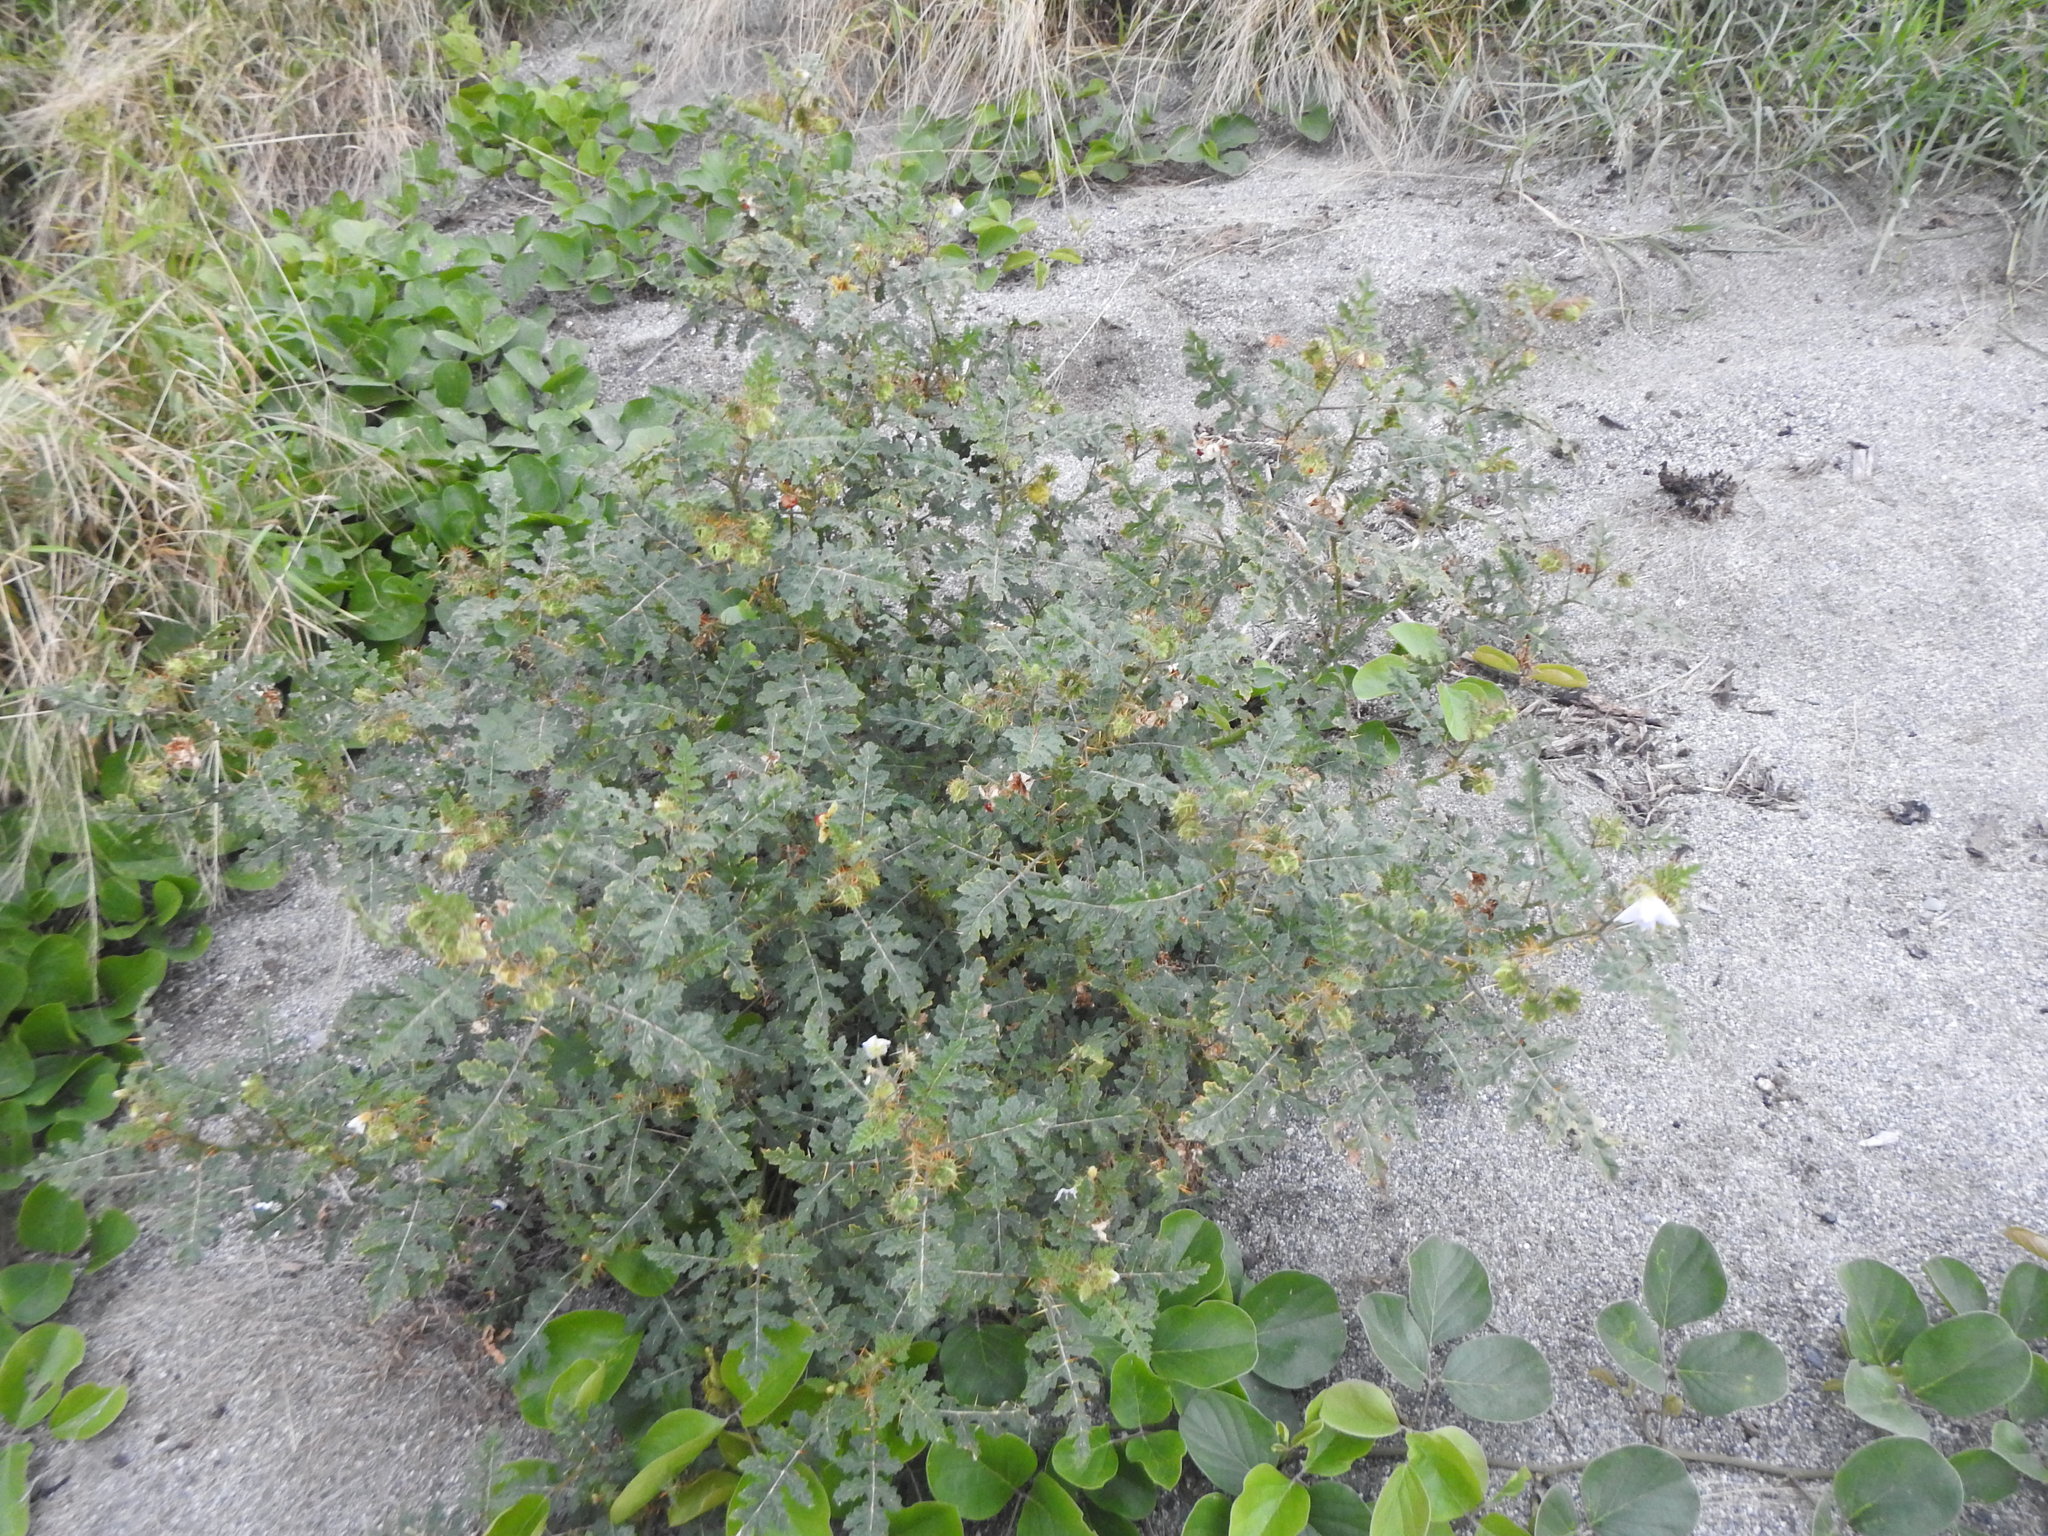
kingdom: Plantae
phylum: Tracheophyta
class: Magnoliopsida
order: Solanales
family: Solanaceae
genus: Solanum
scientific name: Solanum sisymbriifolium
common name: Red buffalo-bur
